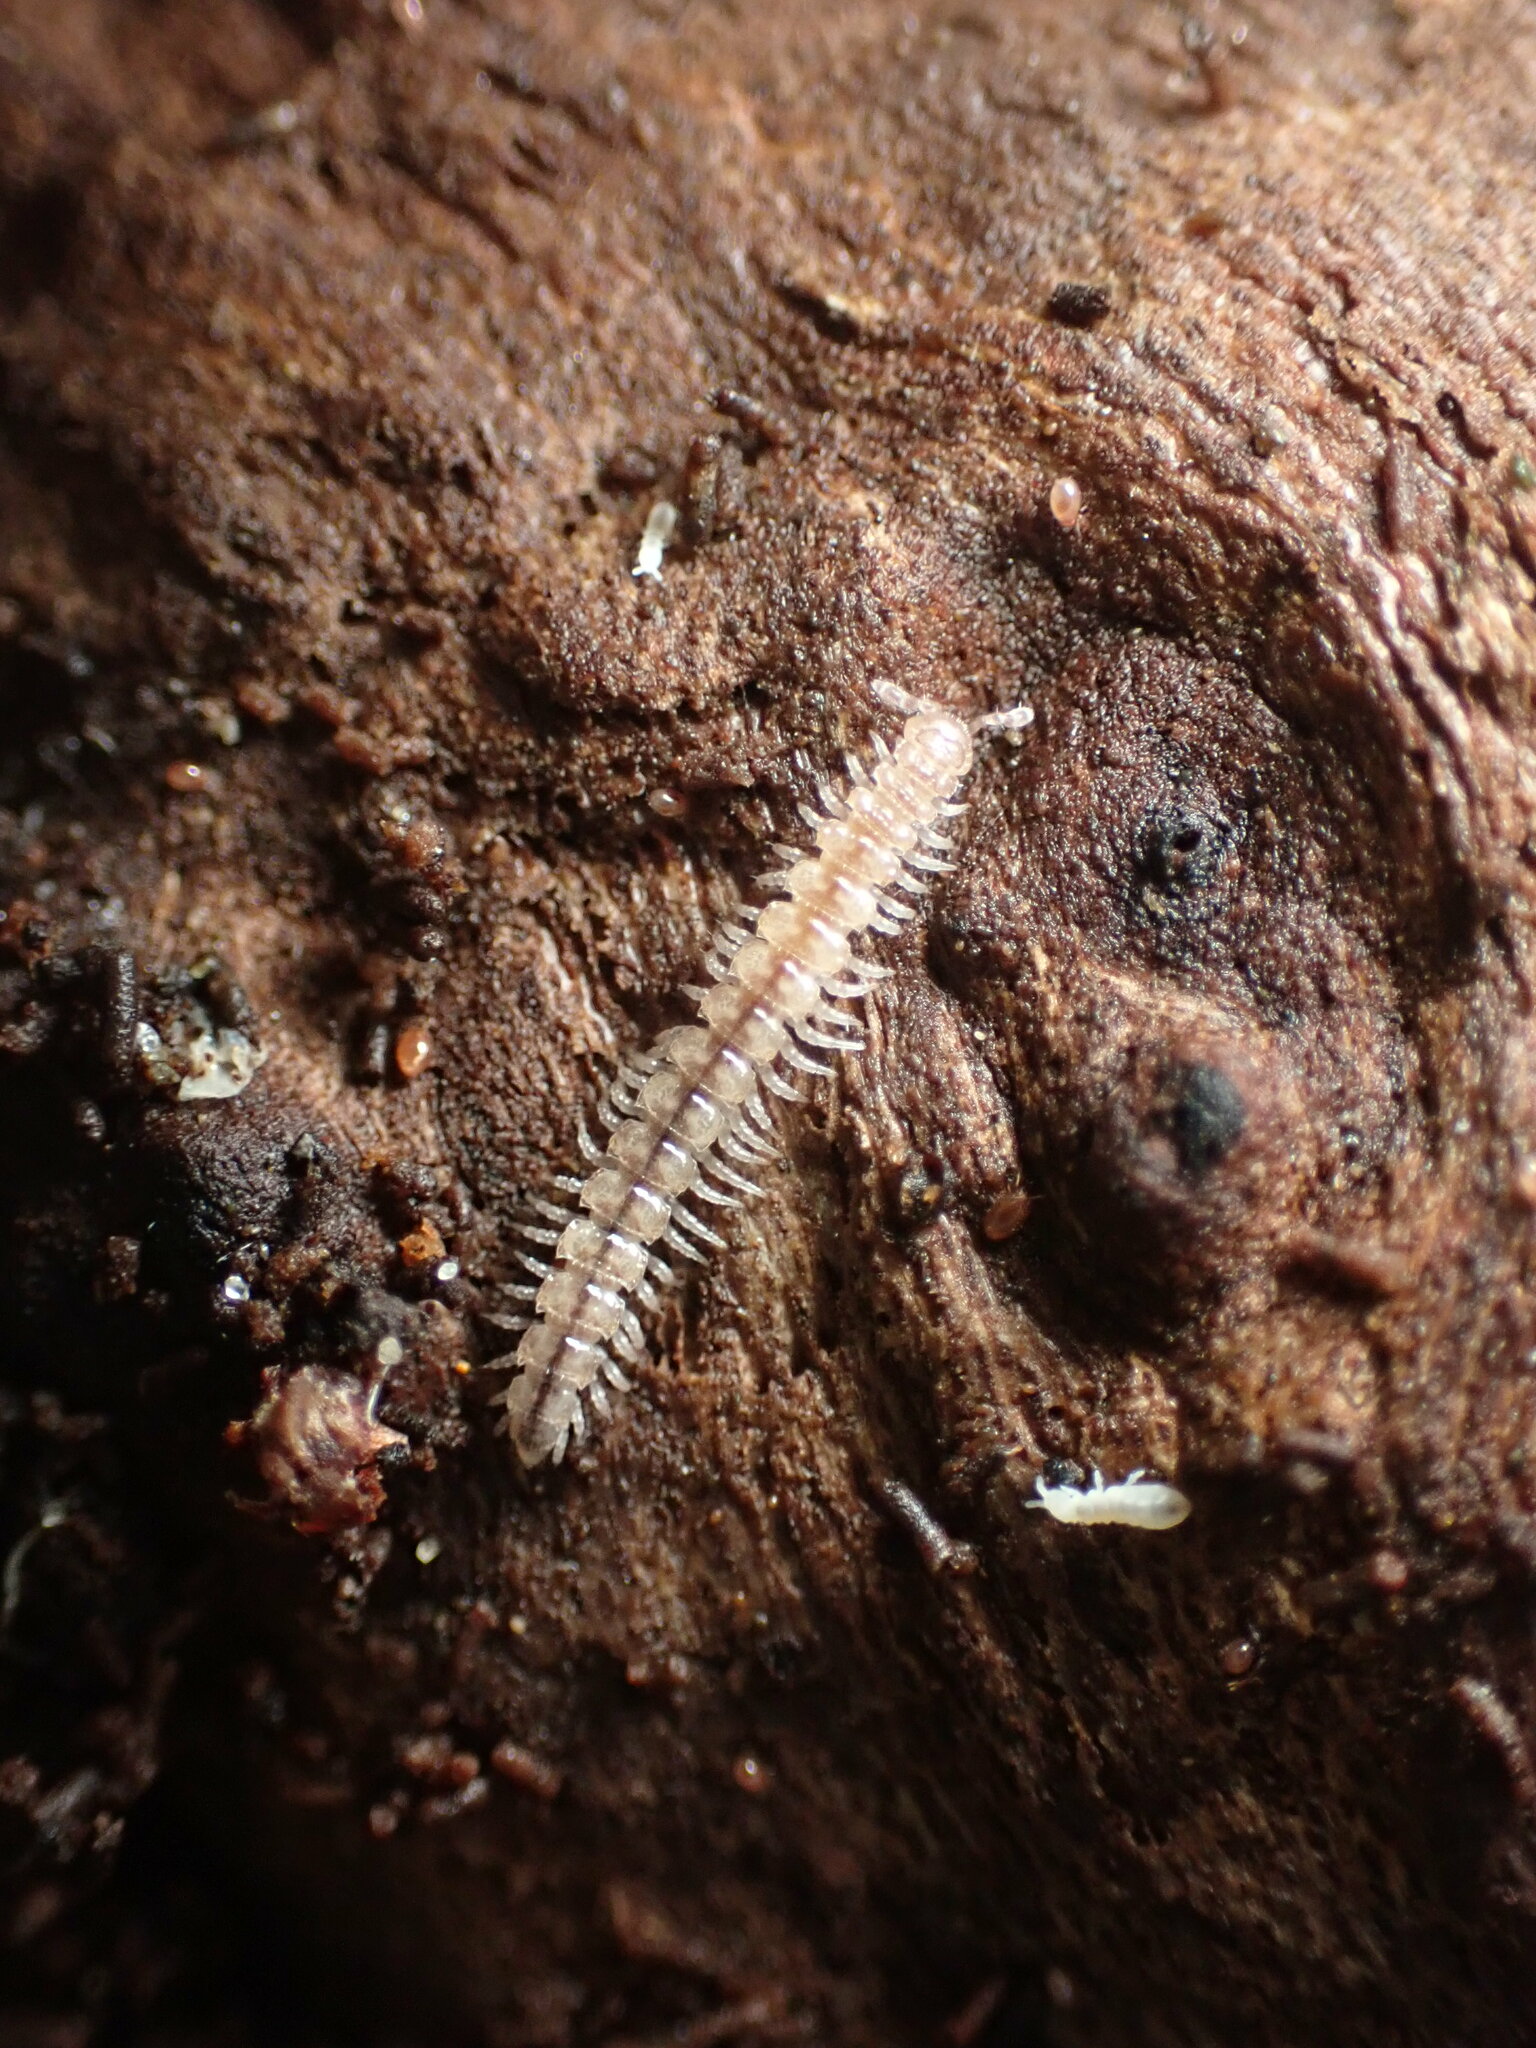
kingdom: Animalia
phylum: Arthropoda
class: Diplopoda
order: Polydesmida
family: Paradoxosomatidae
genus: Oxidus
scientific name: Oxidus gracilis
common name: Greenhouse millipede
